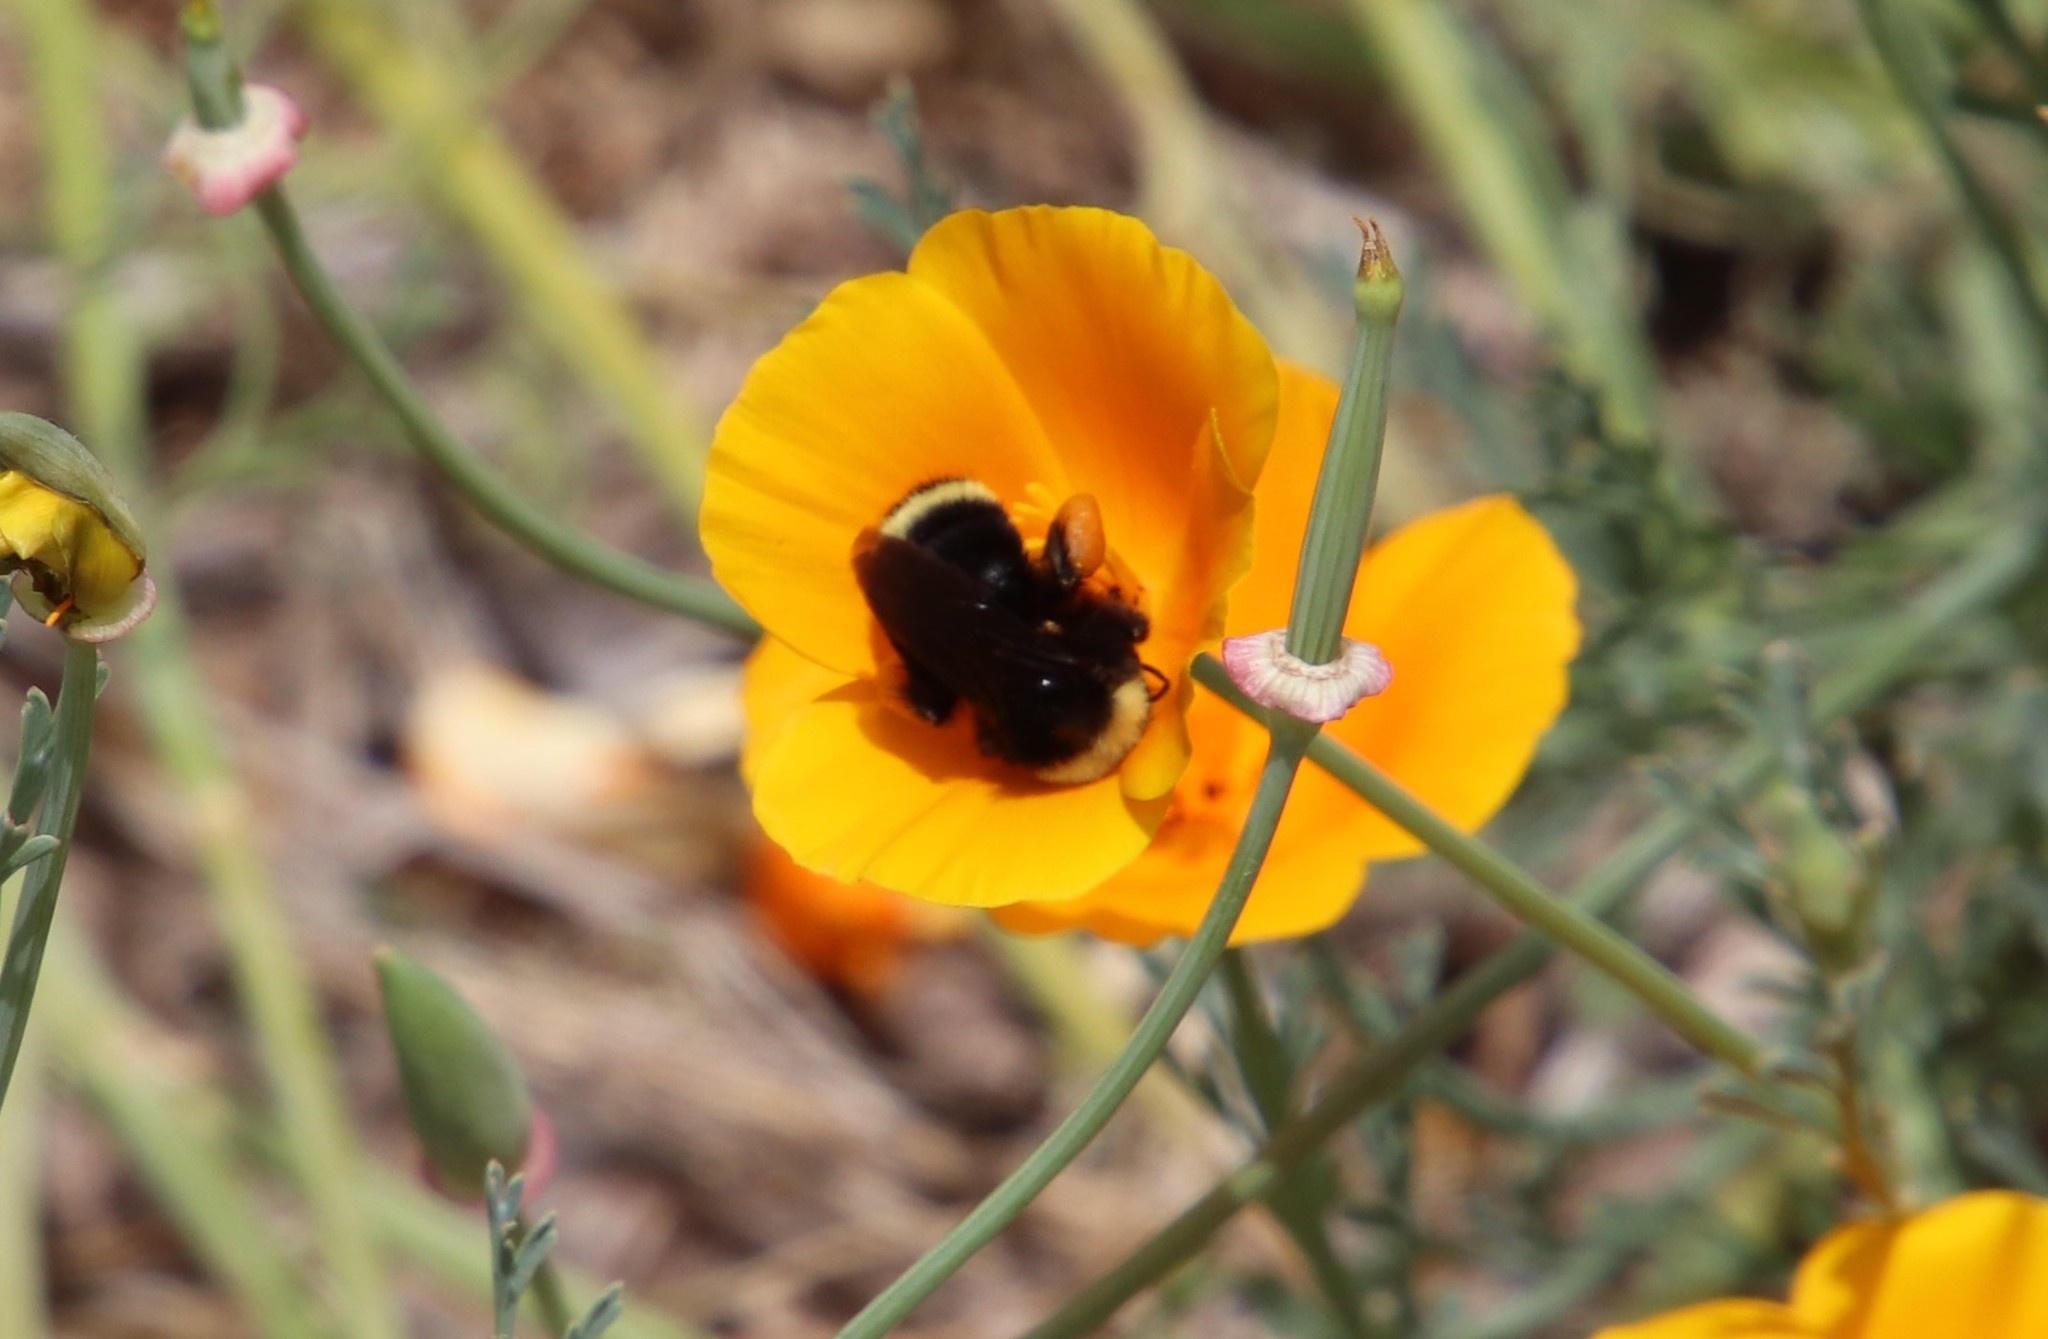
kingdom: Animalia
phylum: Arthropoda
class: Insecta
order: Hymenoptera
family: Apidae
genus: Bombus
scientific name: Bombus vosnesenskii
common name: Vosnesensky bumble bee
